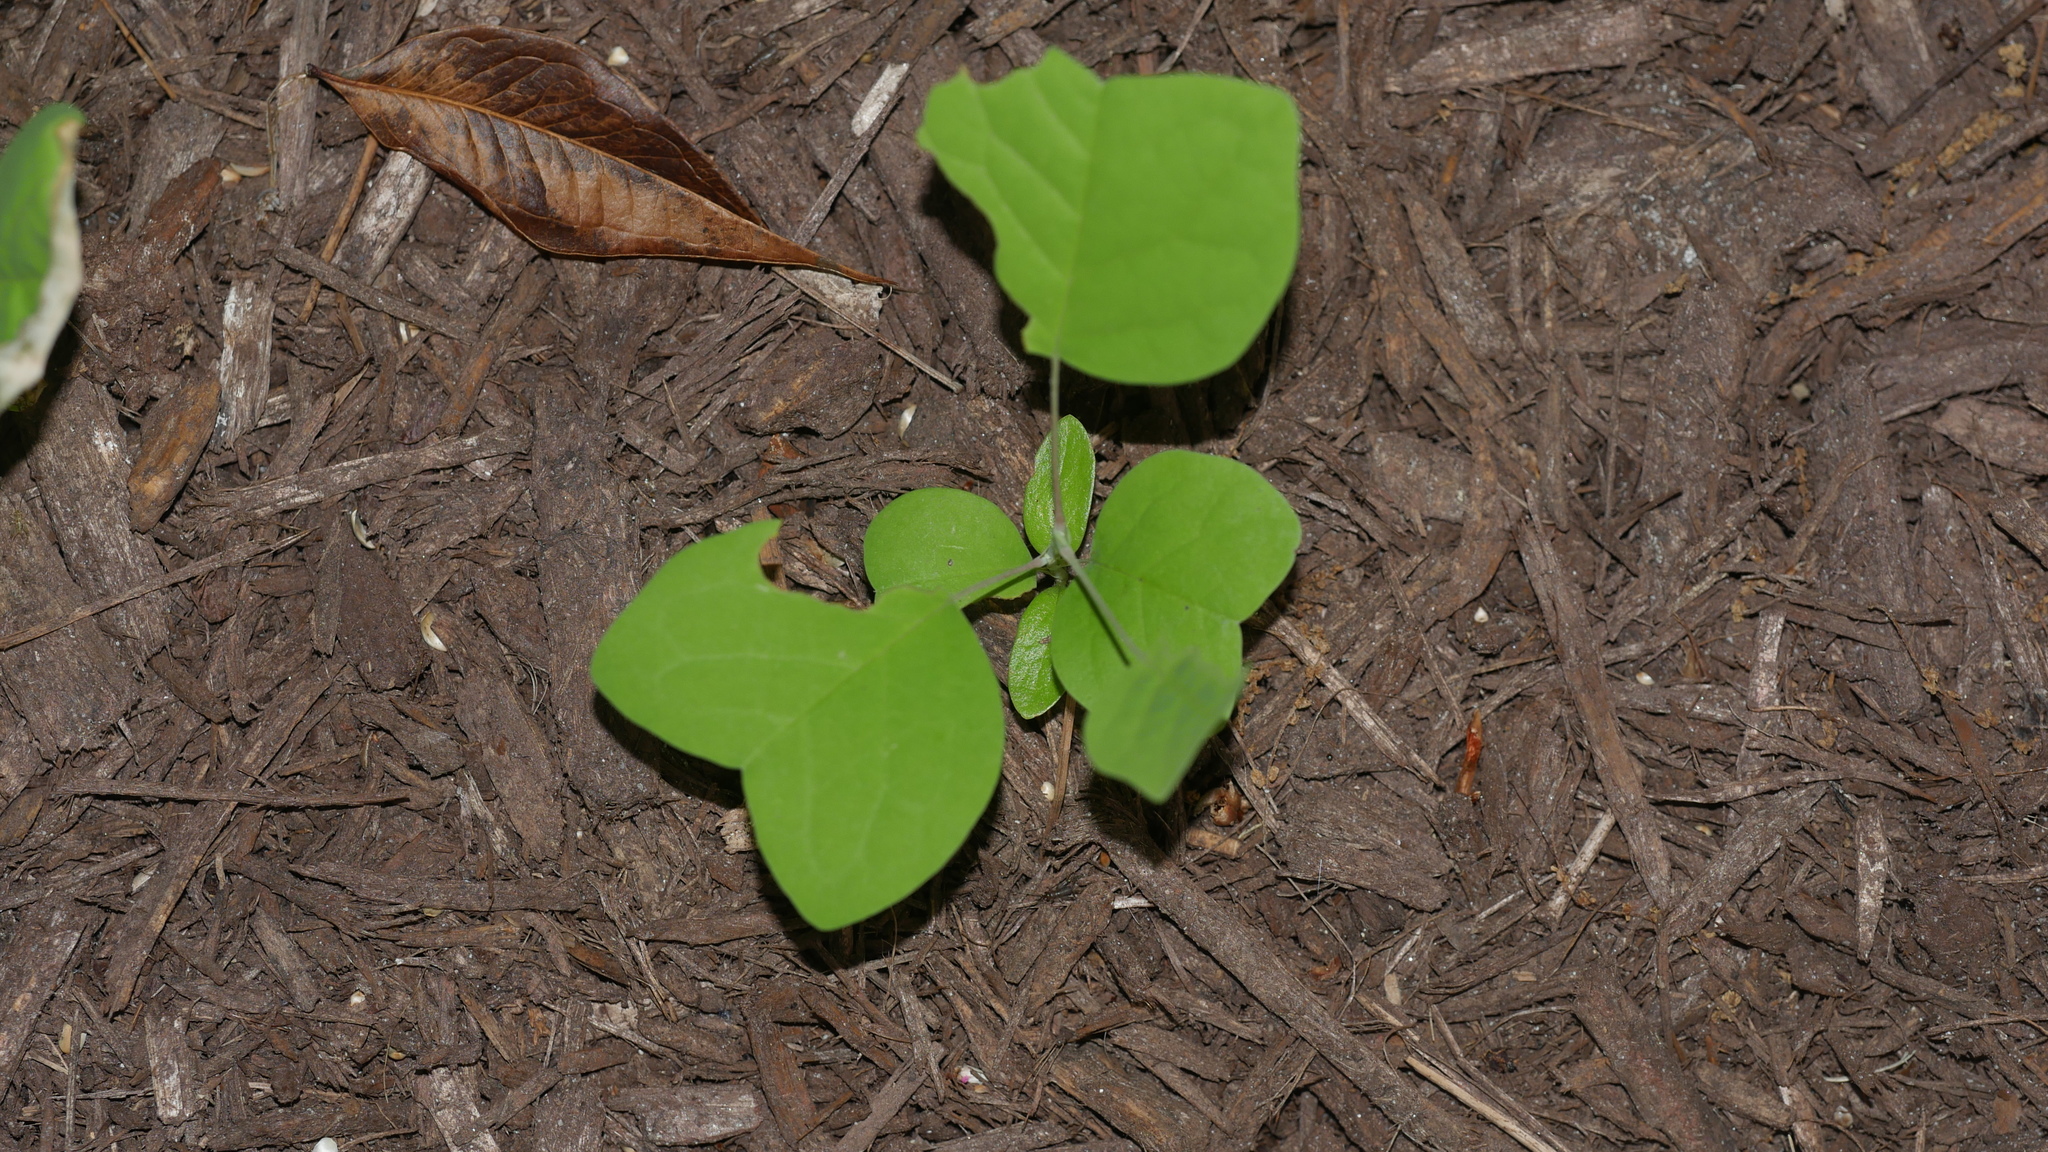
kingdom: Plantae
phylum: Tracheophyta
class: Magnoliopsida
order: Magnoliales
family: Magnoliaceae
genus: Liriodendron
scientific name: Liriodendron tulipifera
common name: Tulip tree
